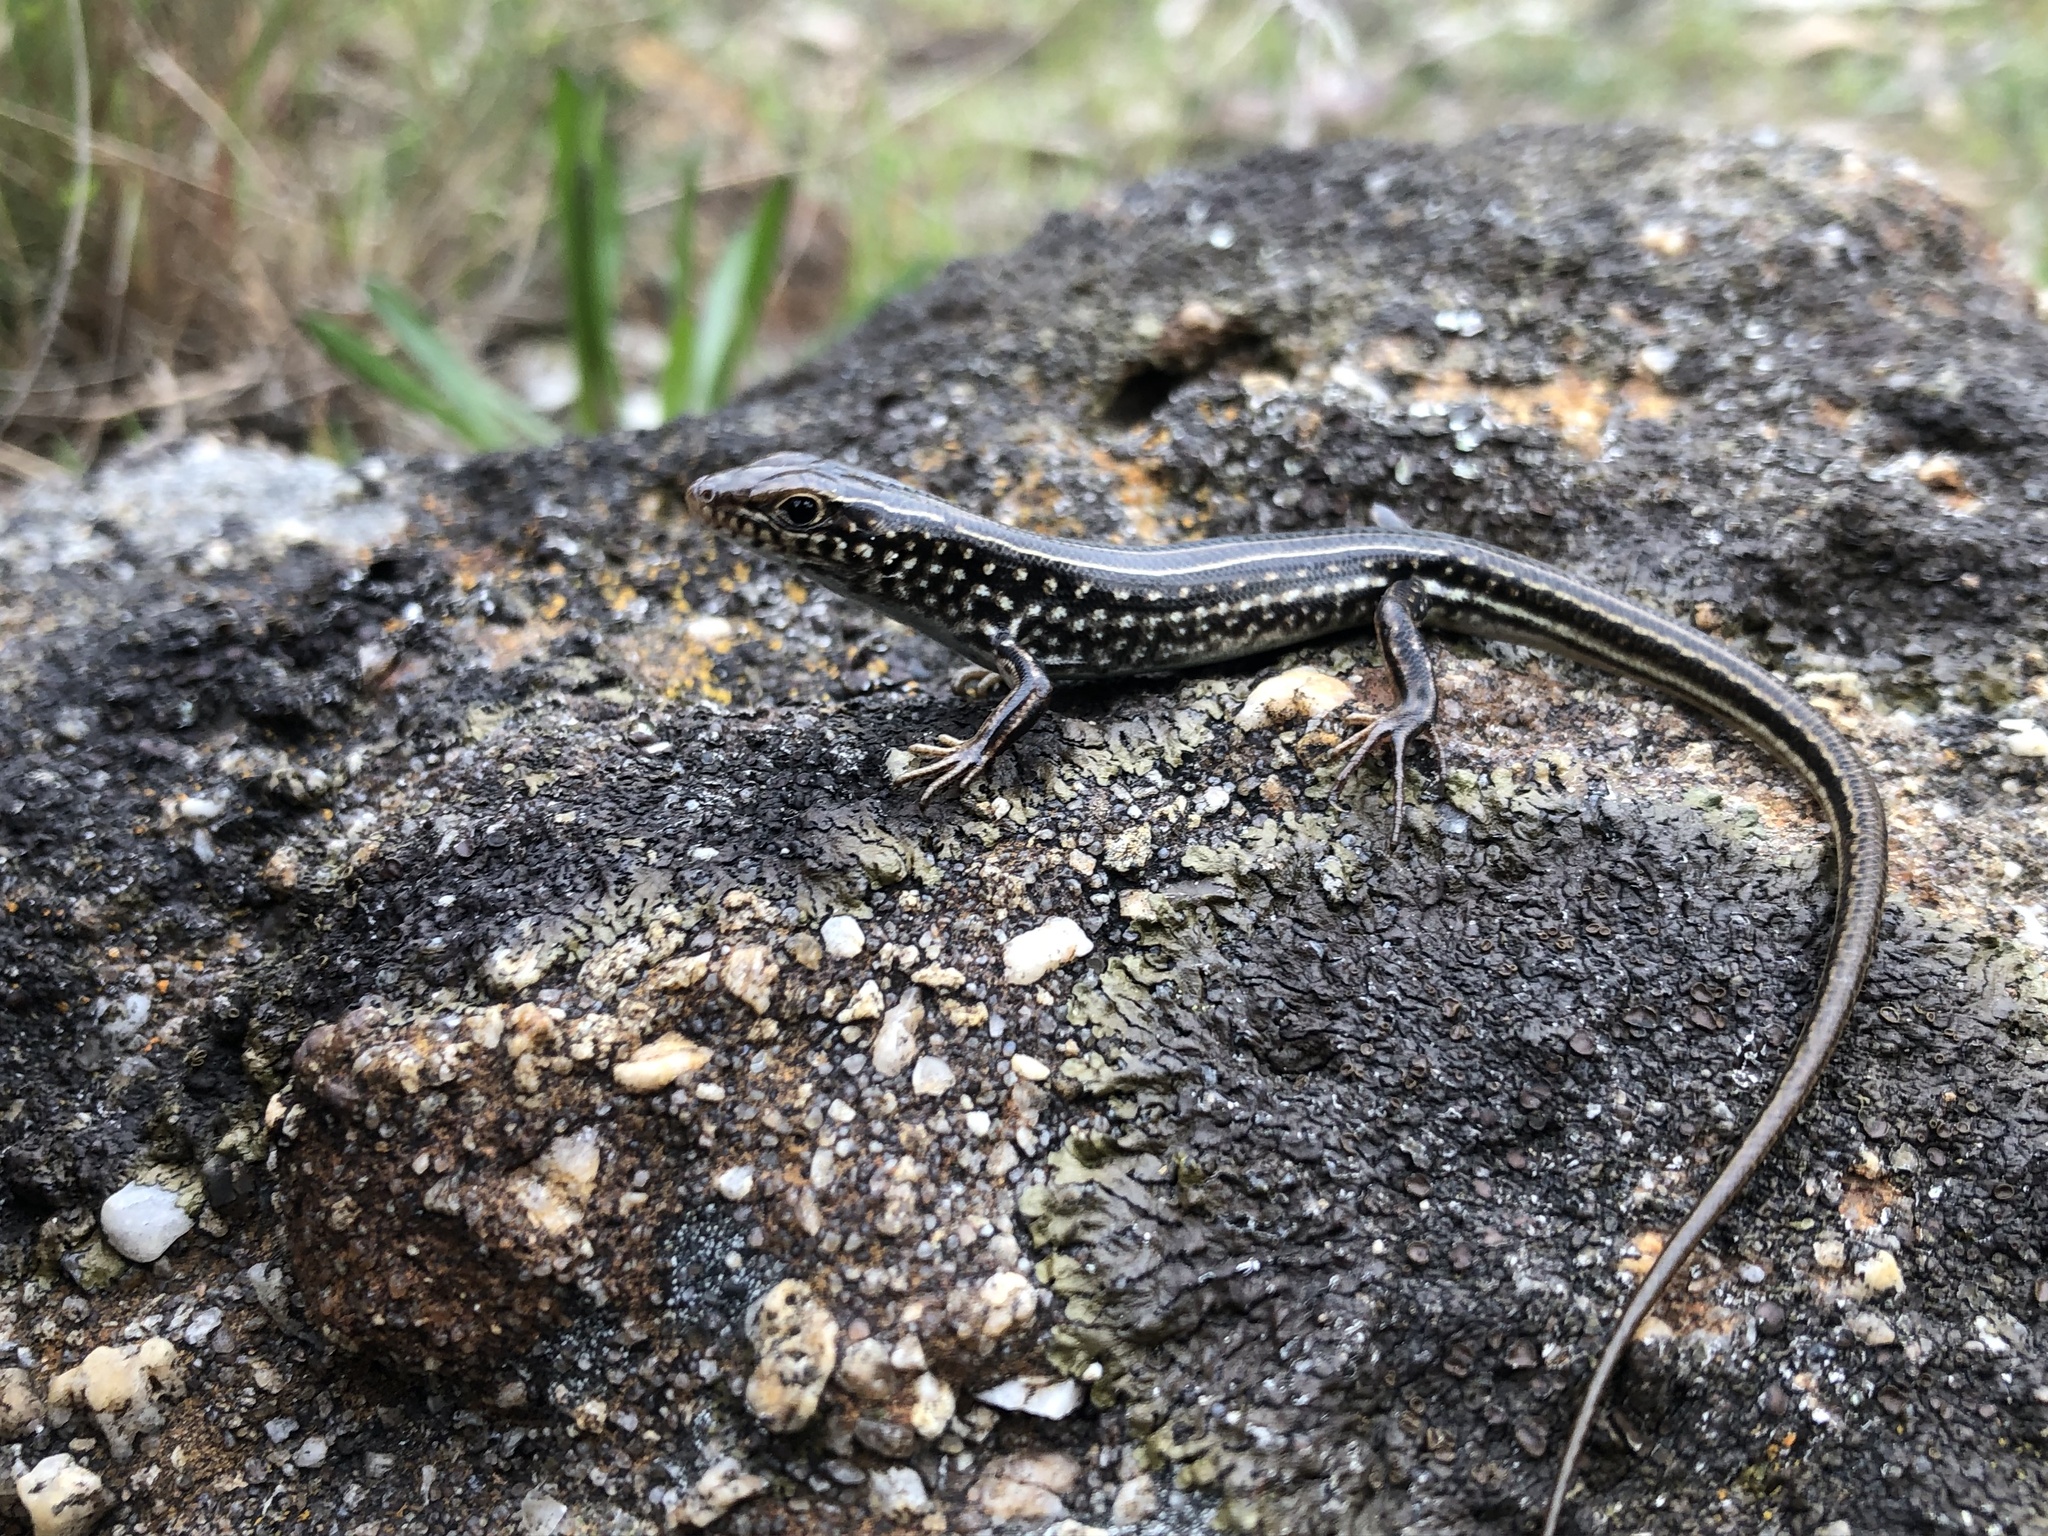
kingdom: Animalia
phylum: Chordata
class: Squamata
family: Scincidae
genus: Ctenotus
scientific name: Ctenotus orientalis
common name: Oriental ctenotus
